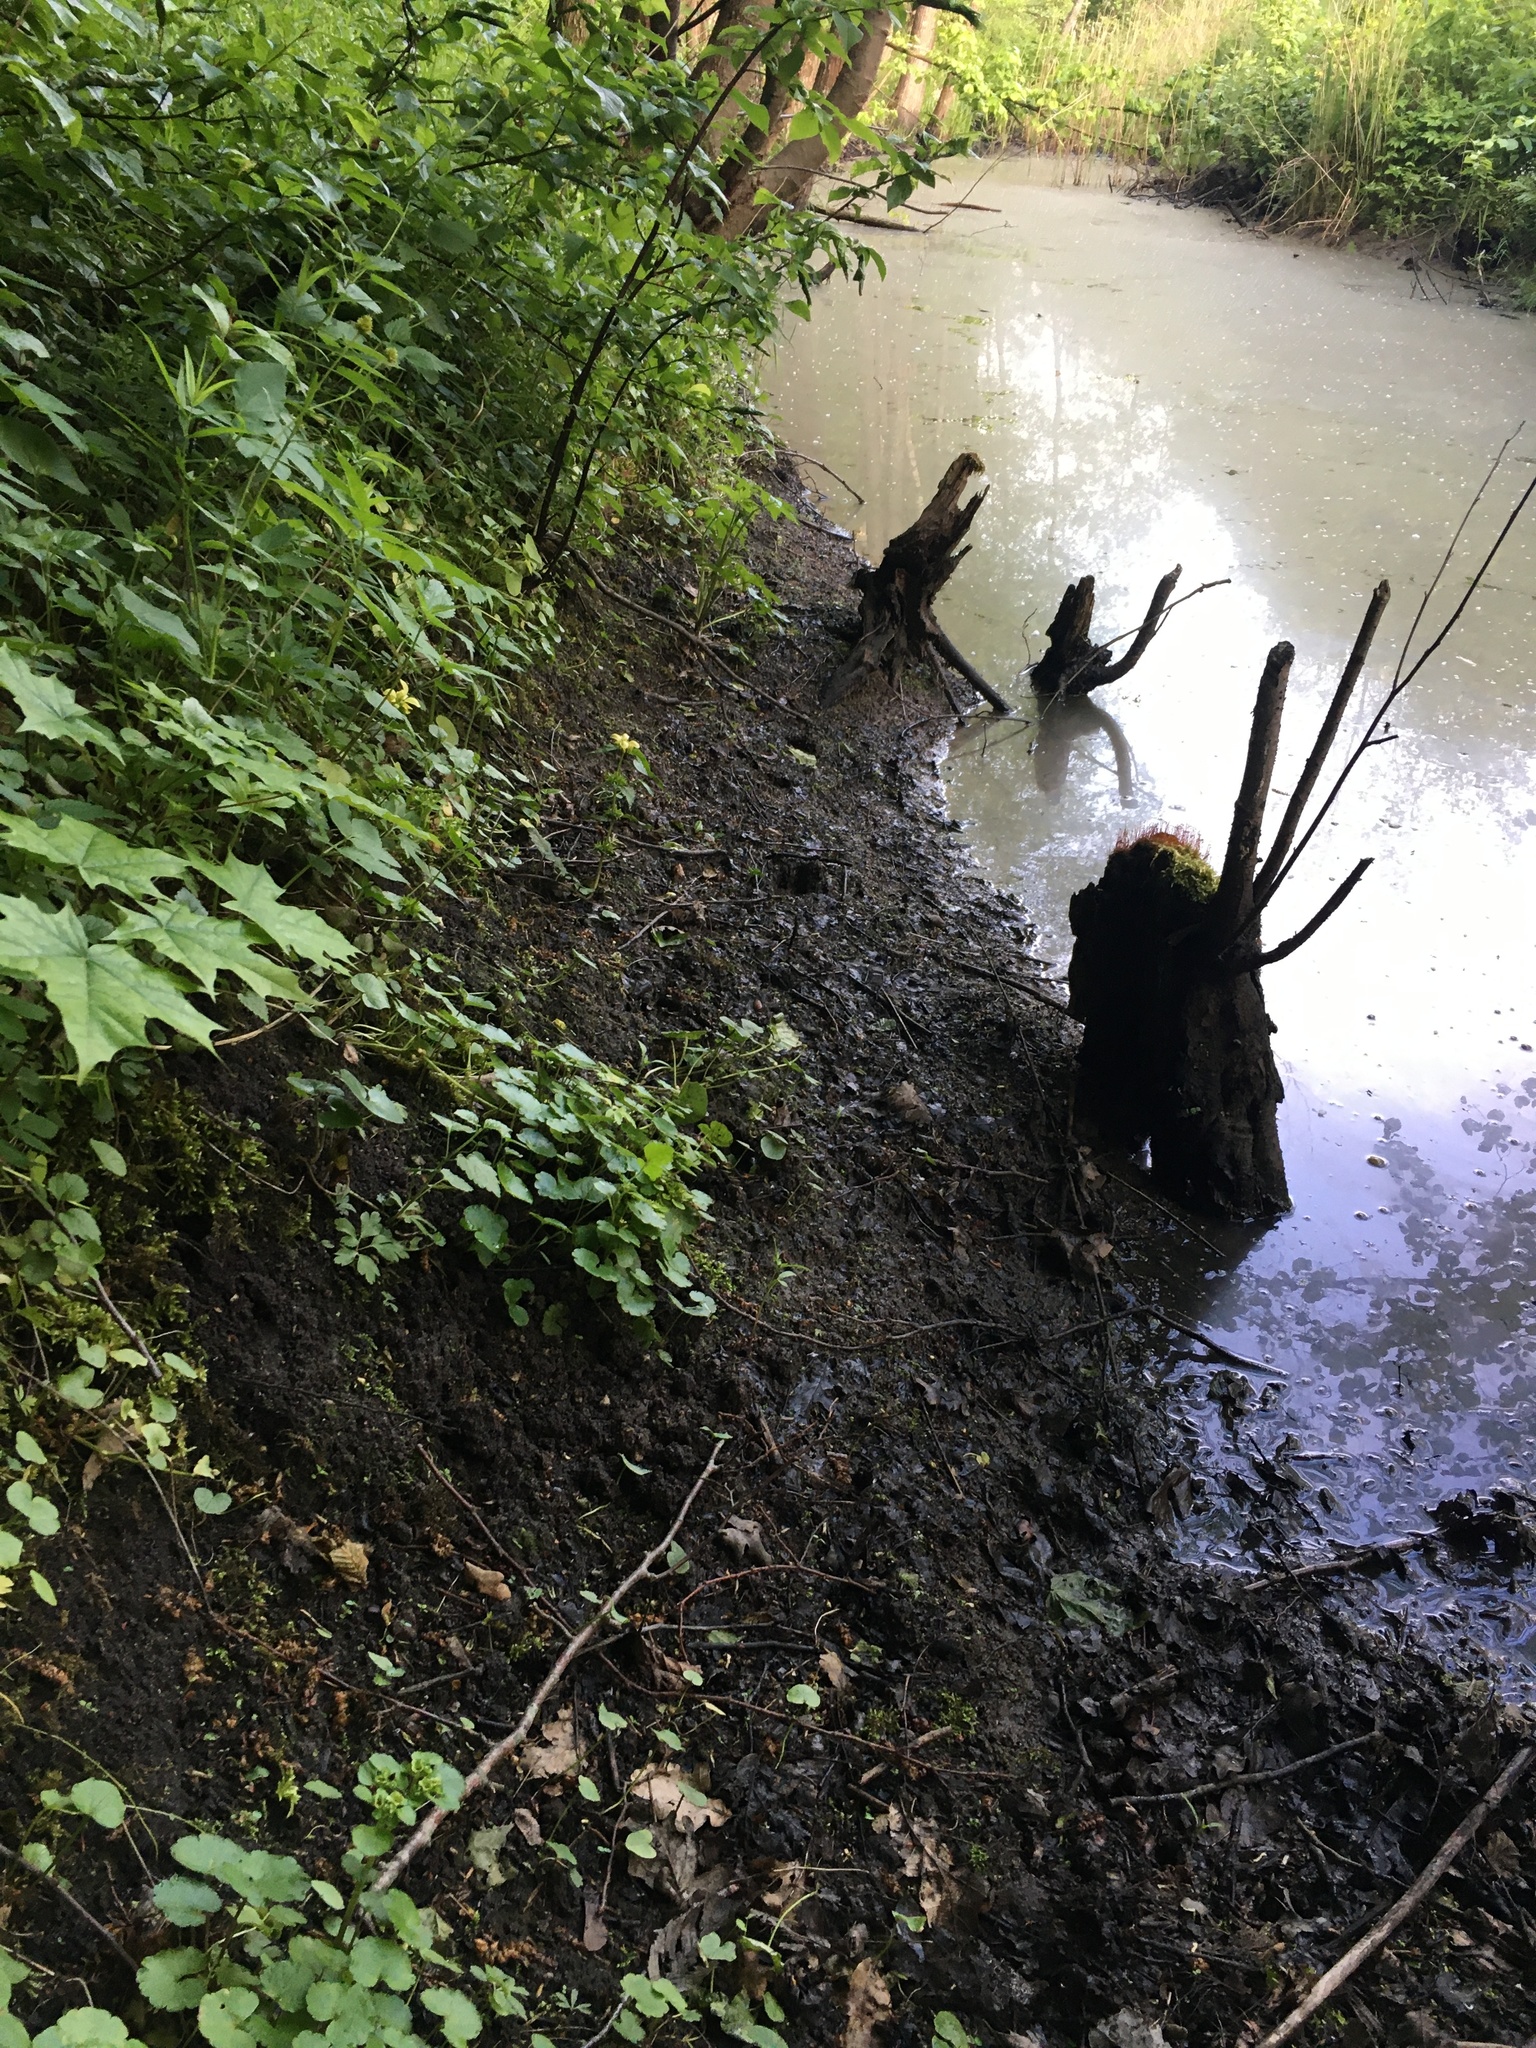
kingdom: Plantae
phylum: Tracheophyta
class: Magnoliopsida
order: Saxifragales
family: Saxifragaceae
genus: Chrysosplenium
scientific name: Chrysosplenium alternifolium
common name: Alternate-leaved golden-saxifrage
